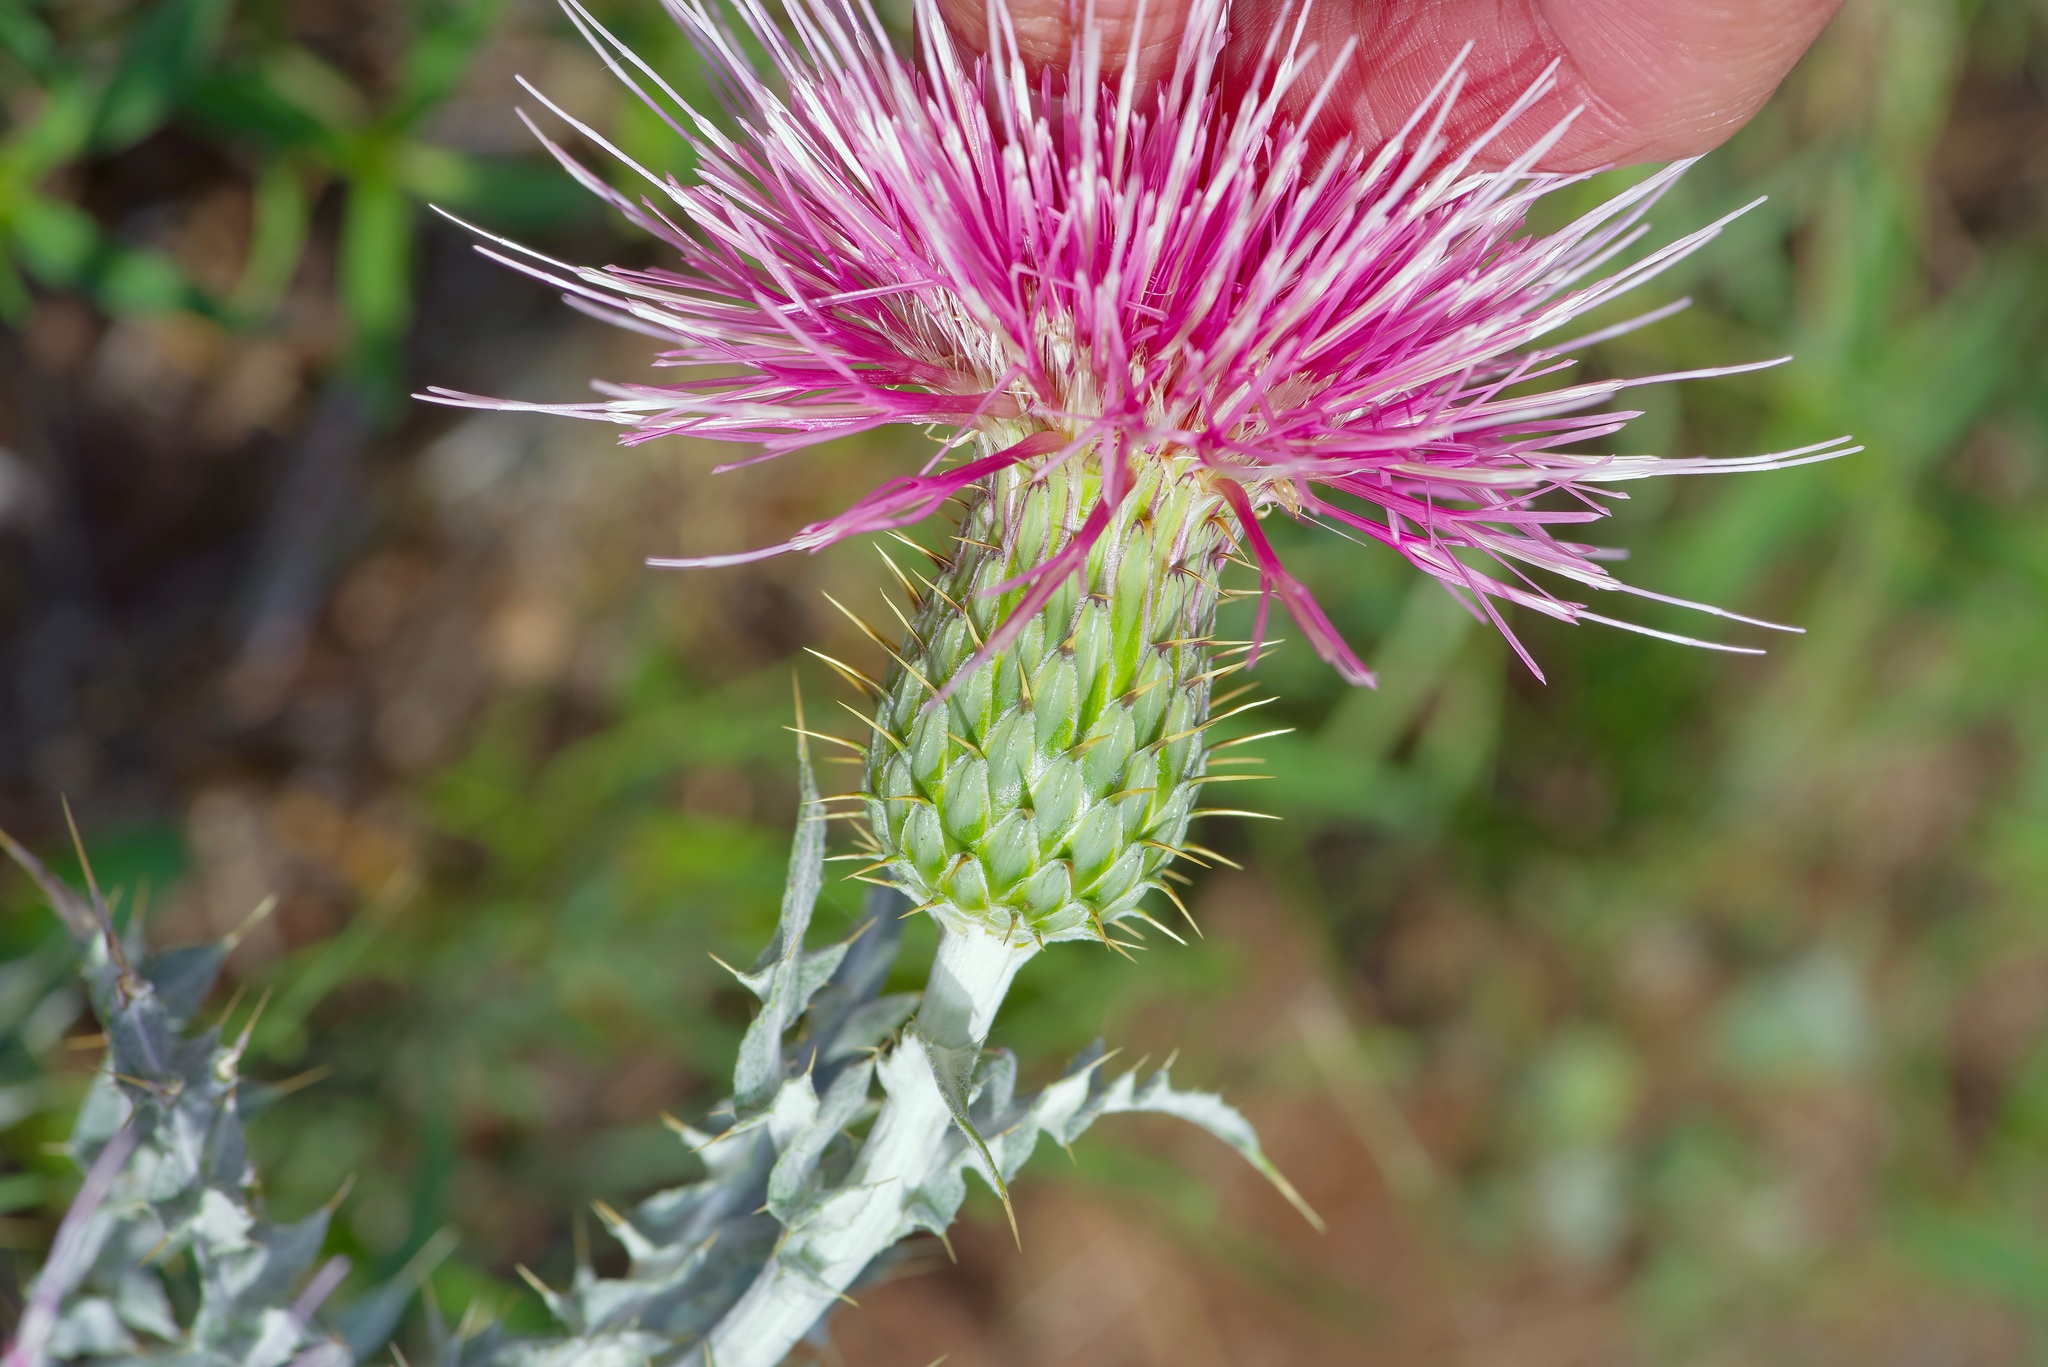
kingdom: Plantae
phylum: Tracheophyta
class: Magnoliopsida
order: Asterales
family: Asteraceae
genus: Cirsium
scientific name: Cirsium ochrocentrum
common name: Yellow-spine thistle
